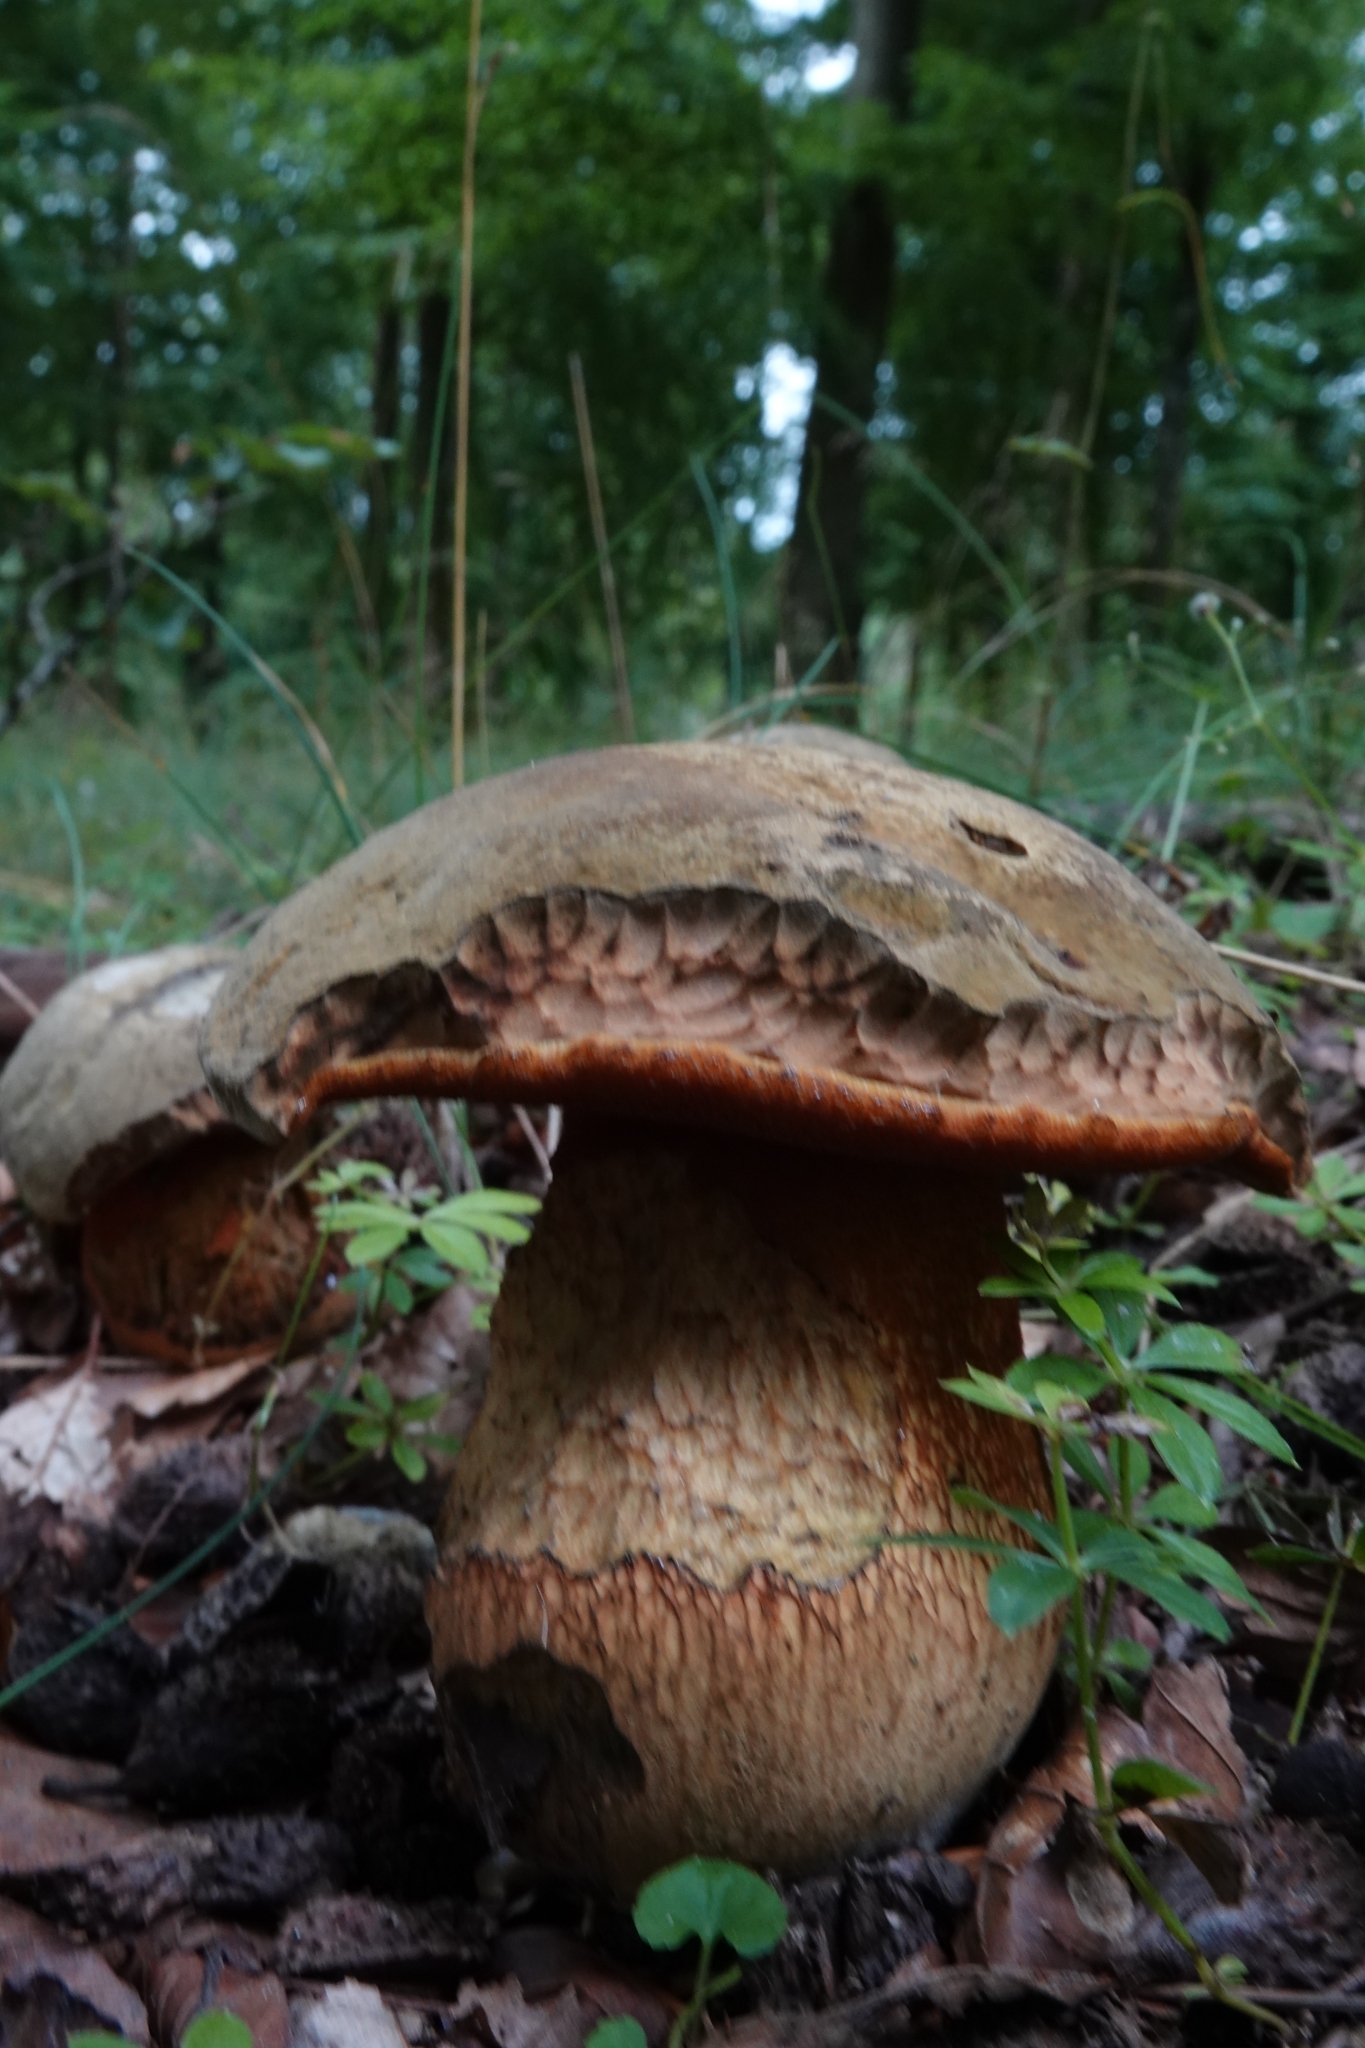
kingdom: Fungi
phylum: Basidiomycota
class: Agaricomycetes
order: Boletales
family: Boletaceae
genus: Suillellus
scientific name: Suillellus luridus
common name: Lurid bolete
